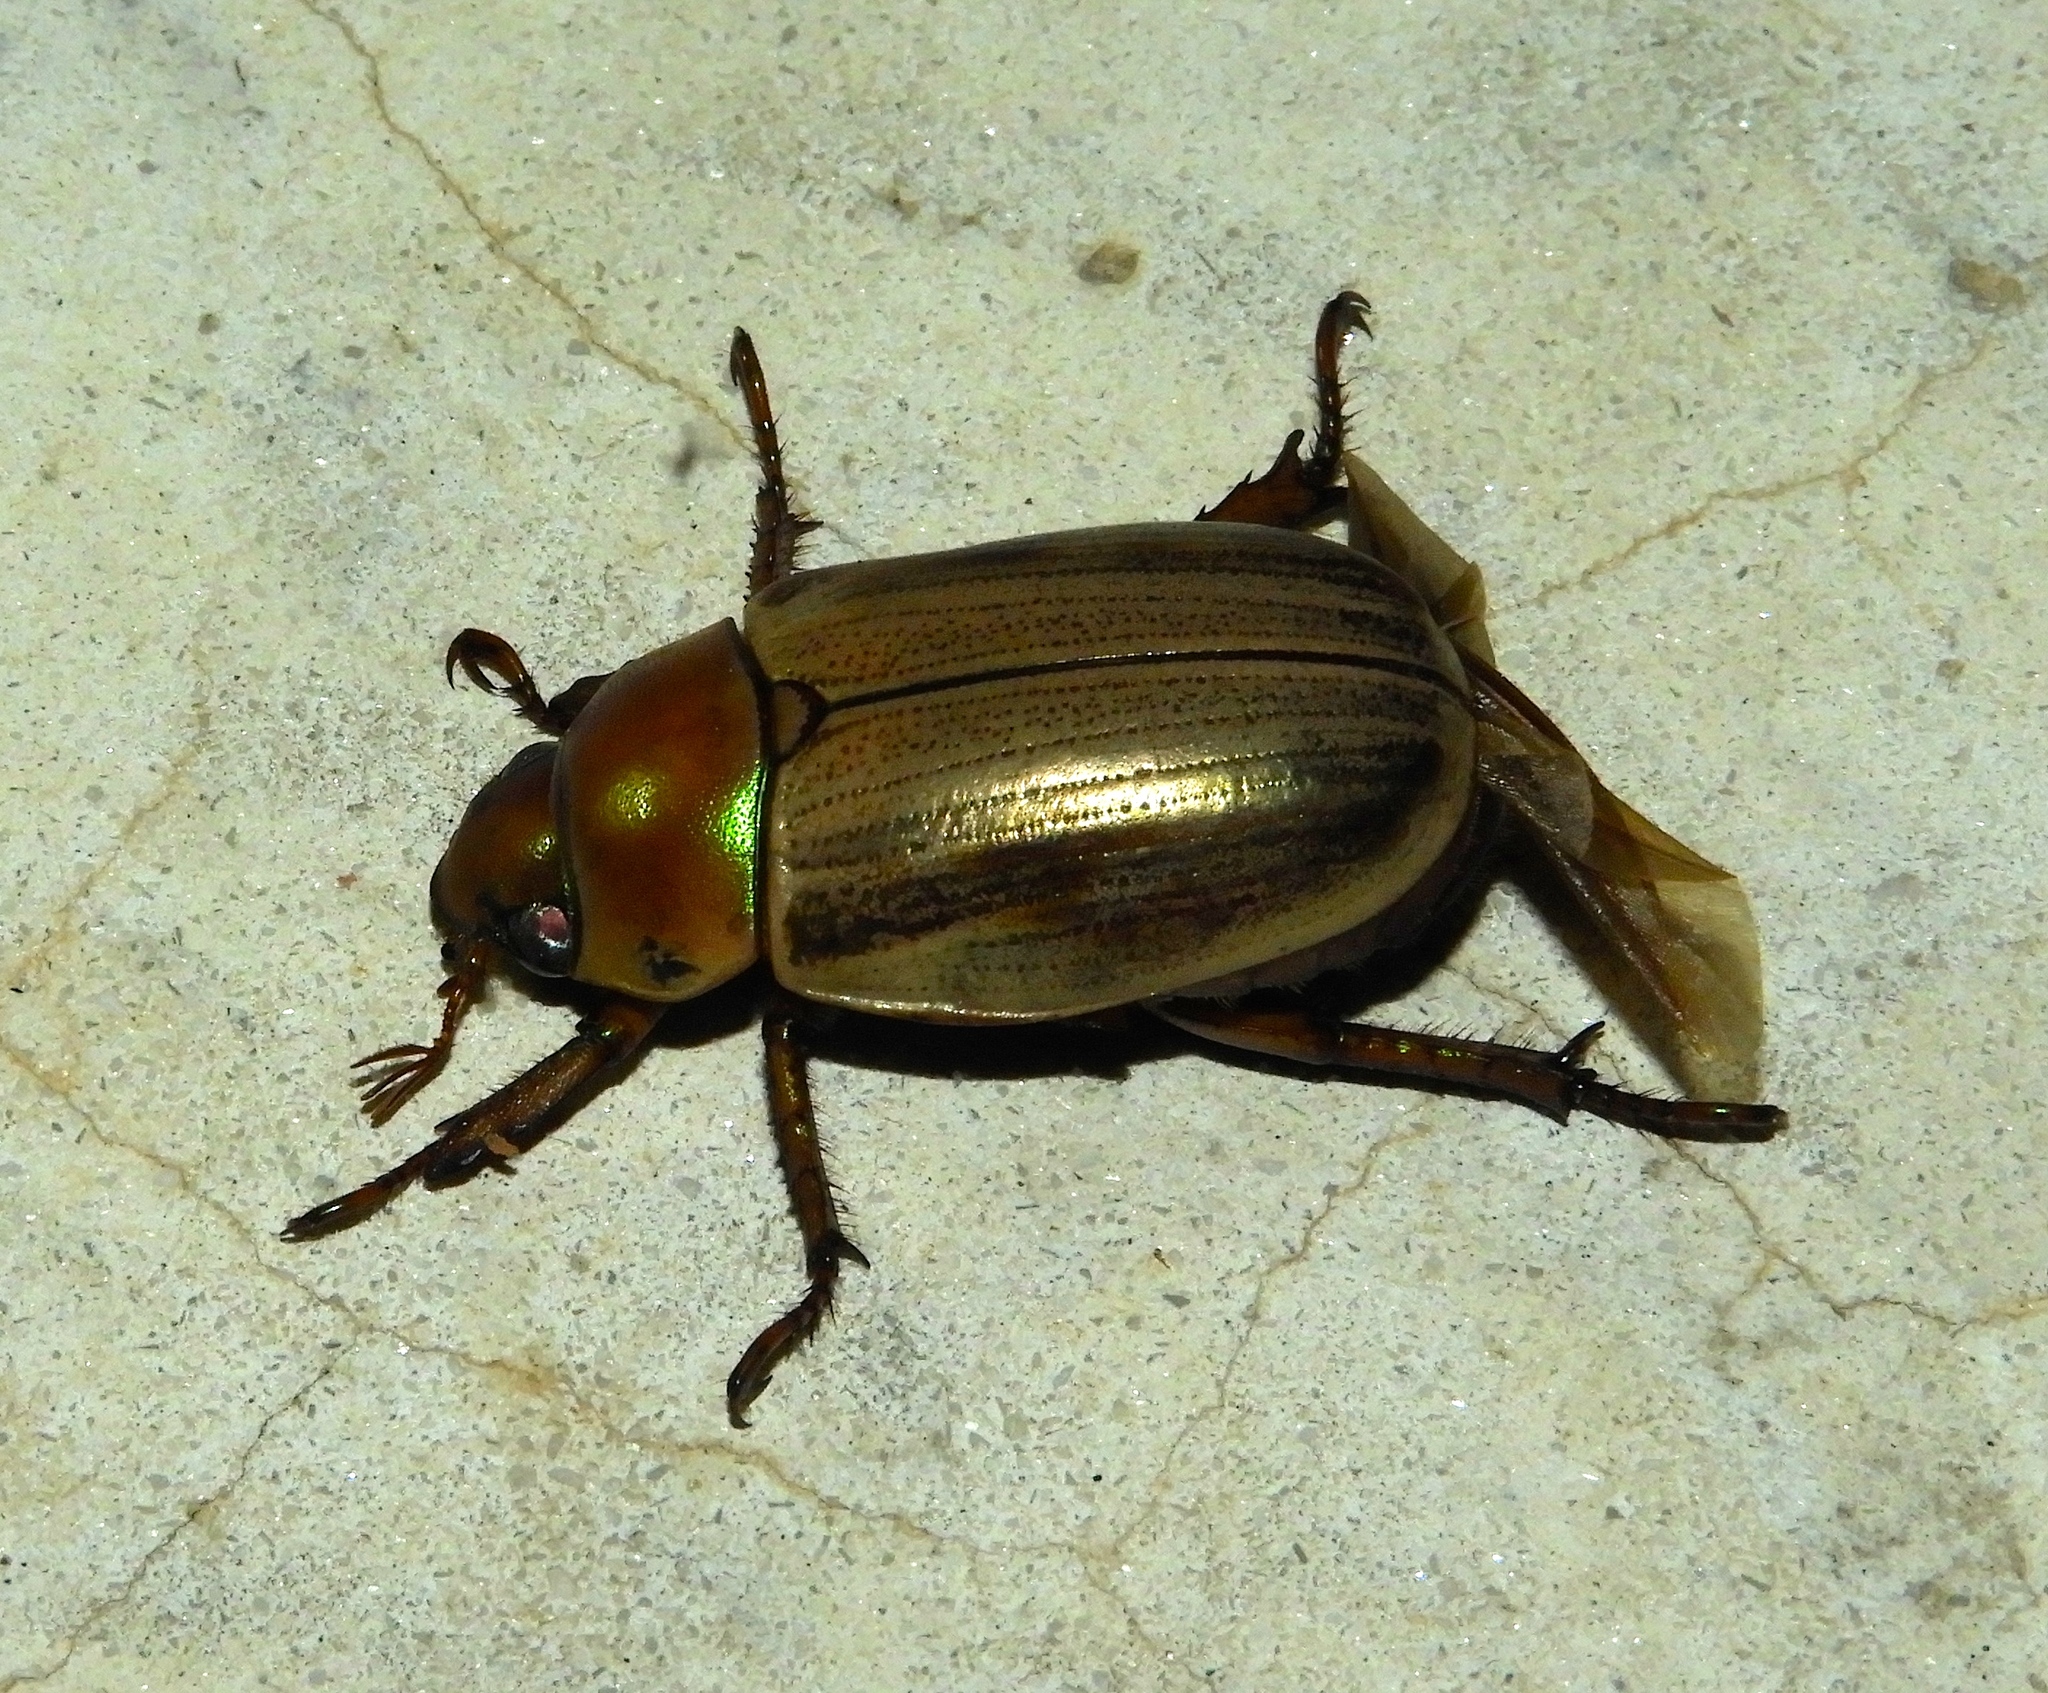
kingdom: Animalia
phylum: Arthropoda
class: Insecta
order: Coleoptera
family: Scarabaeidae
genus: Pelidnota
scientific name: Pelidnota virescens
